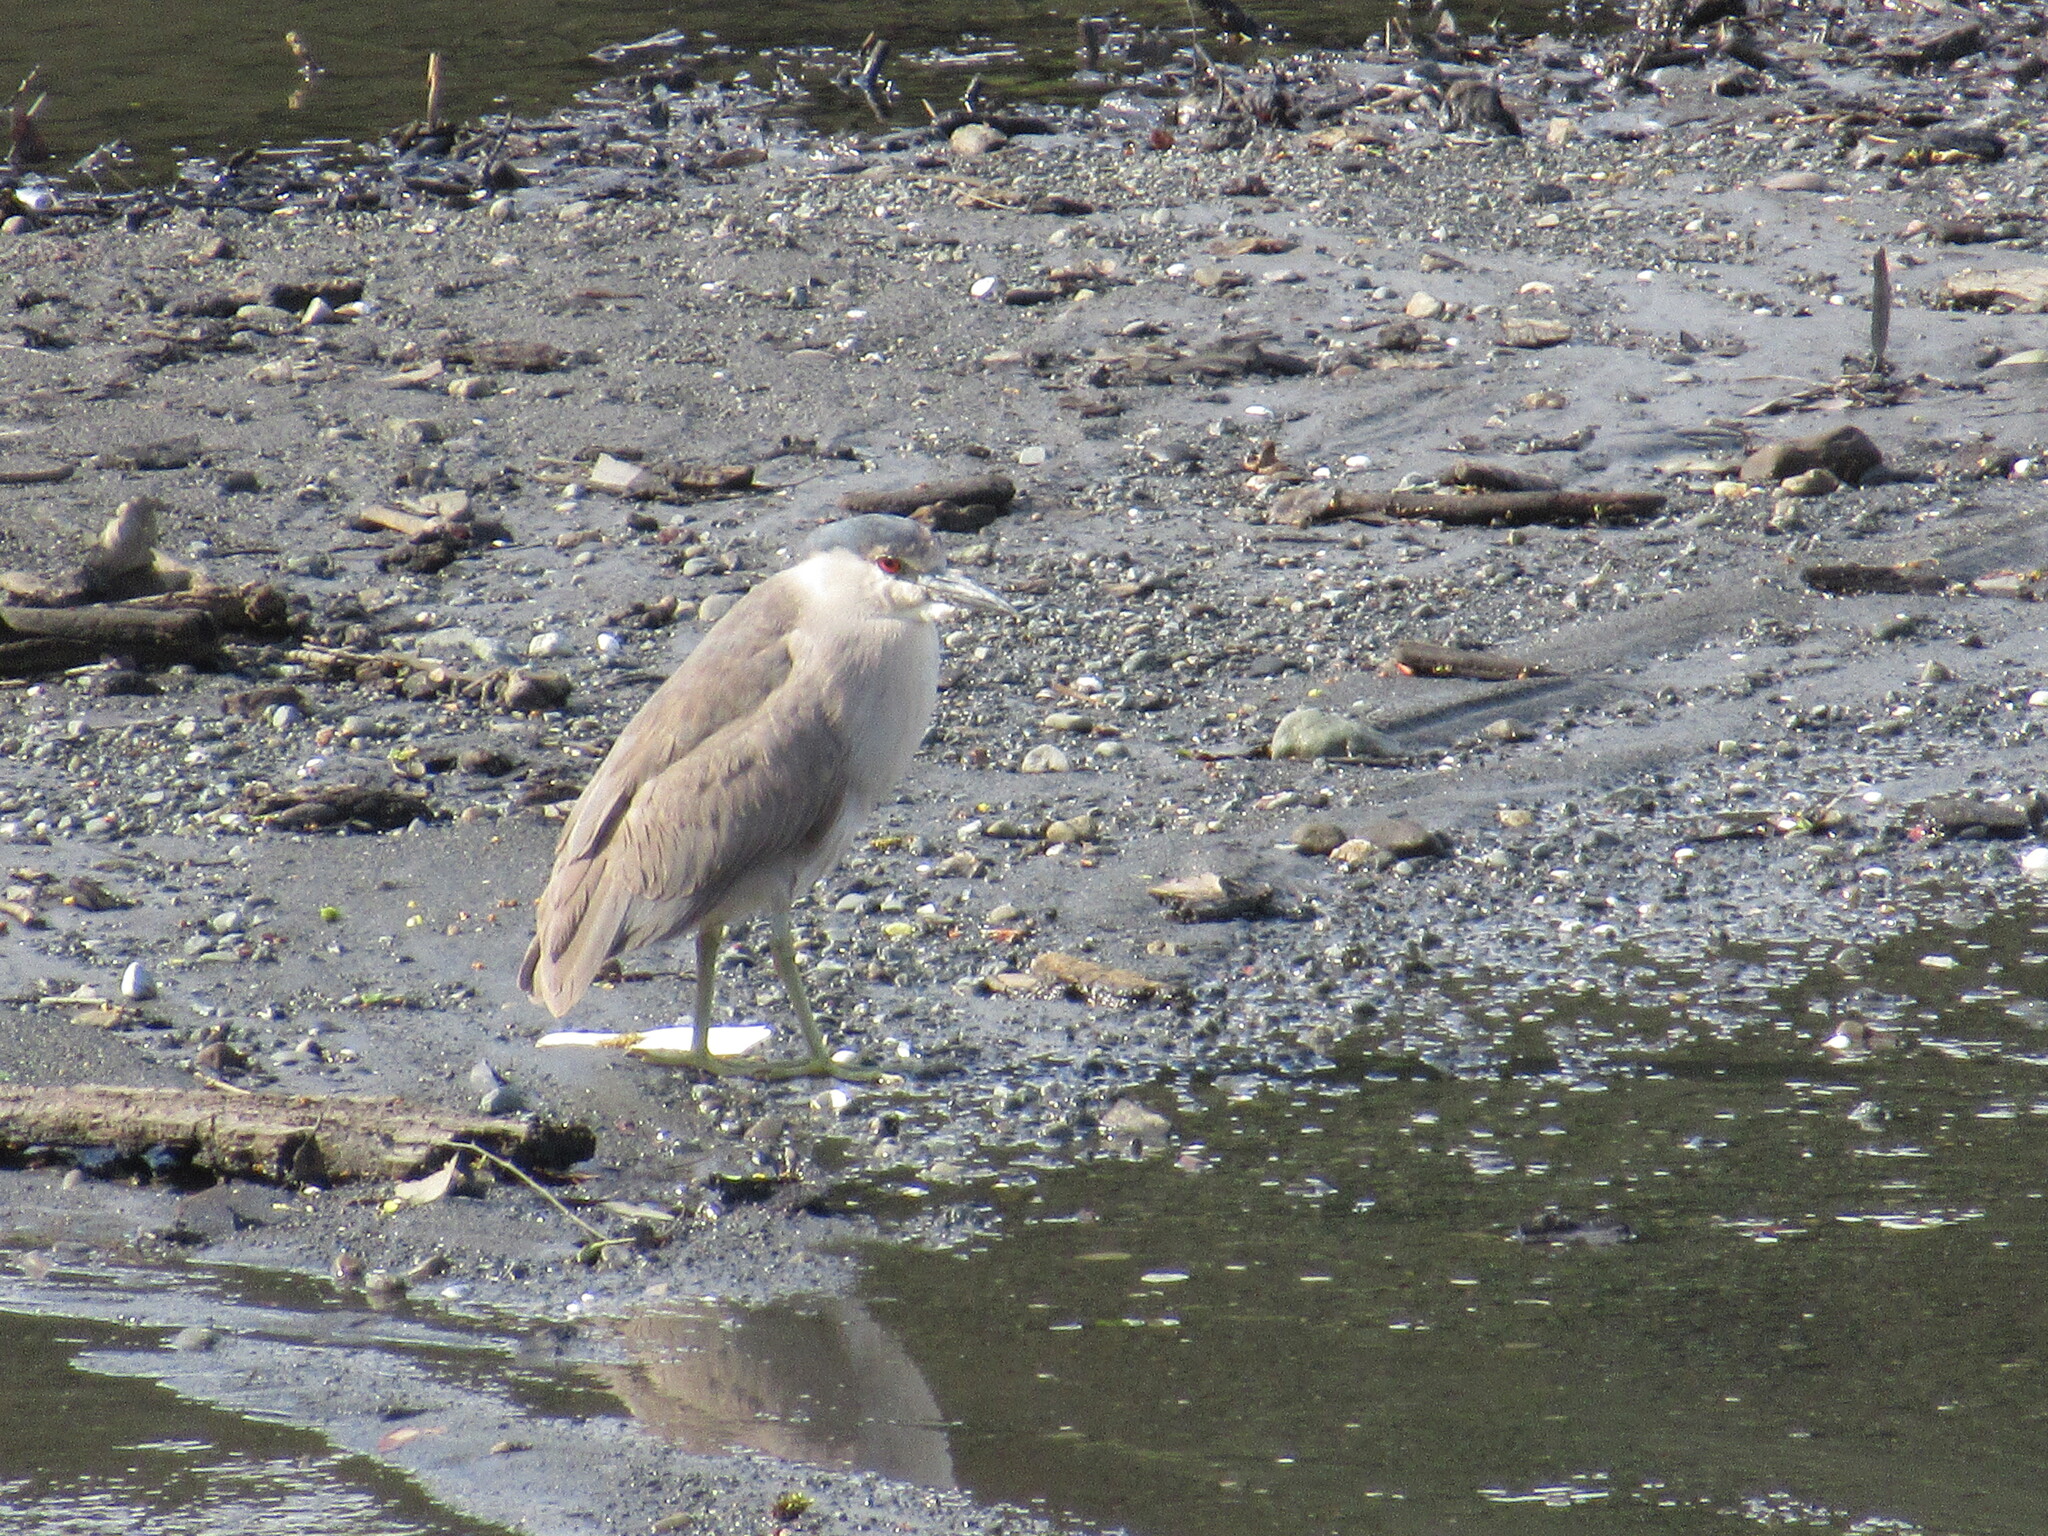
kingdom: Animalia
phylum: Chordata
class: Aves
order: Pelecaniformes
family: Ardeidae
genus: Nycticorax
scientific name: Nycticorax nycticorax
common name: Black-crowned night heron
